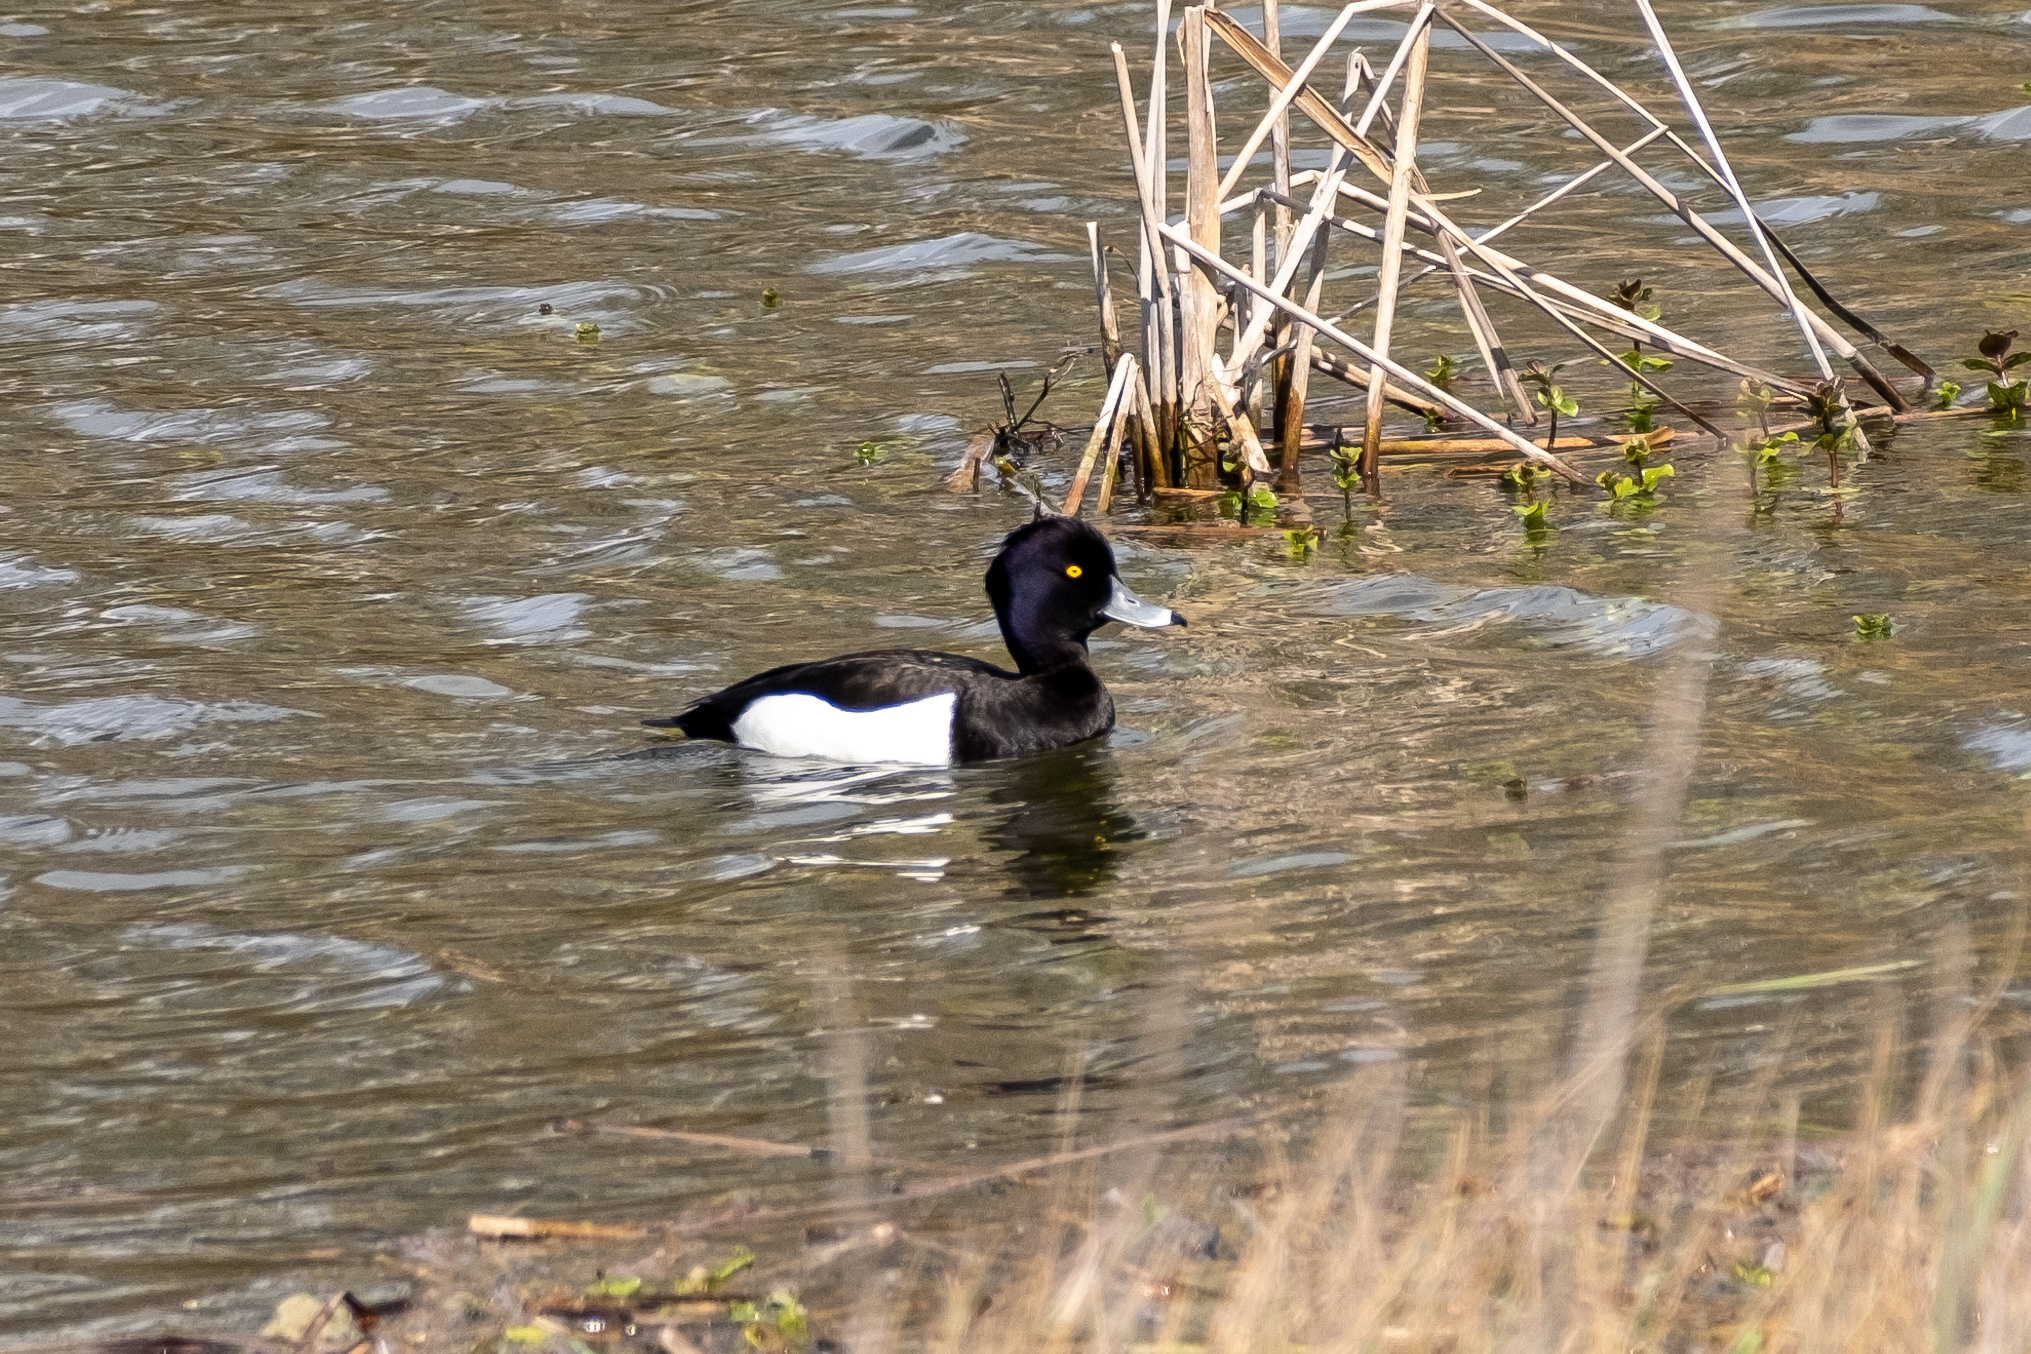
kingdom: Animalia
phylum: Chordata
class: Aves
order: Anseriformes
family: Anatidae
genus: Aythya
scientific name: Aythya fuligula
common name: Tufted duck
